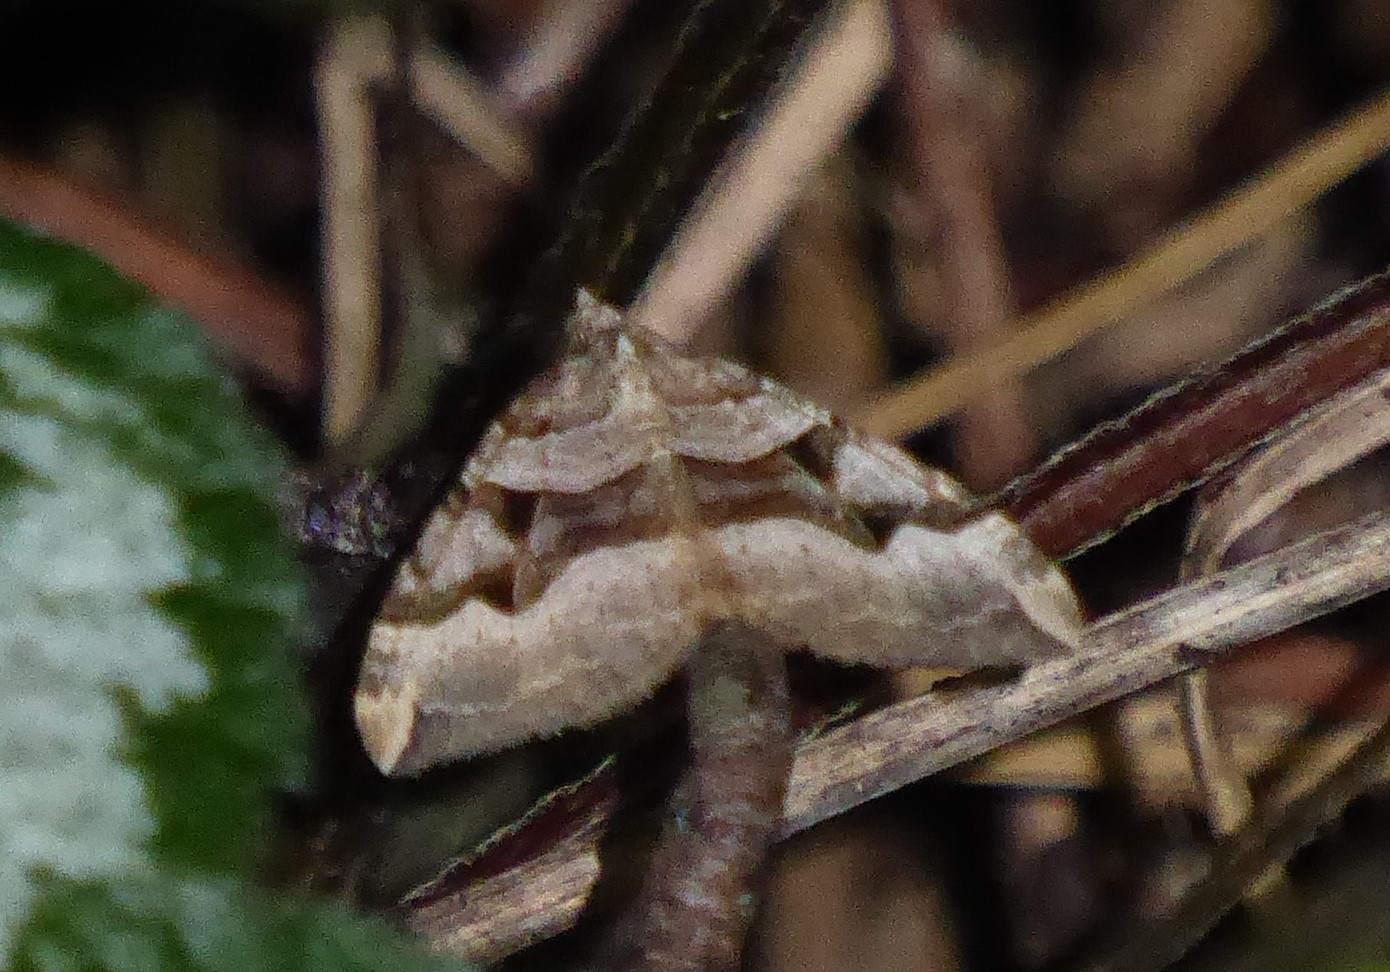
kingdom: Animalia
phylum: Arthropoda
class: Insecta
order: Lepidoptera
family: Geometridae
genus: Xanthorhoe
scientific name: Xanthorhoe semifissata
